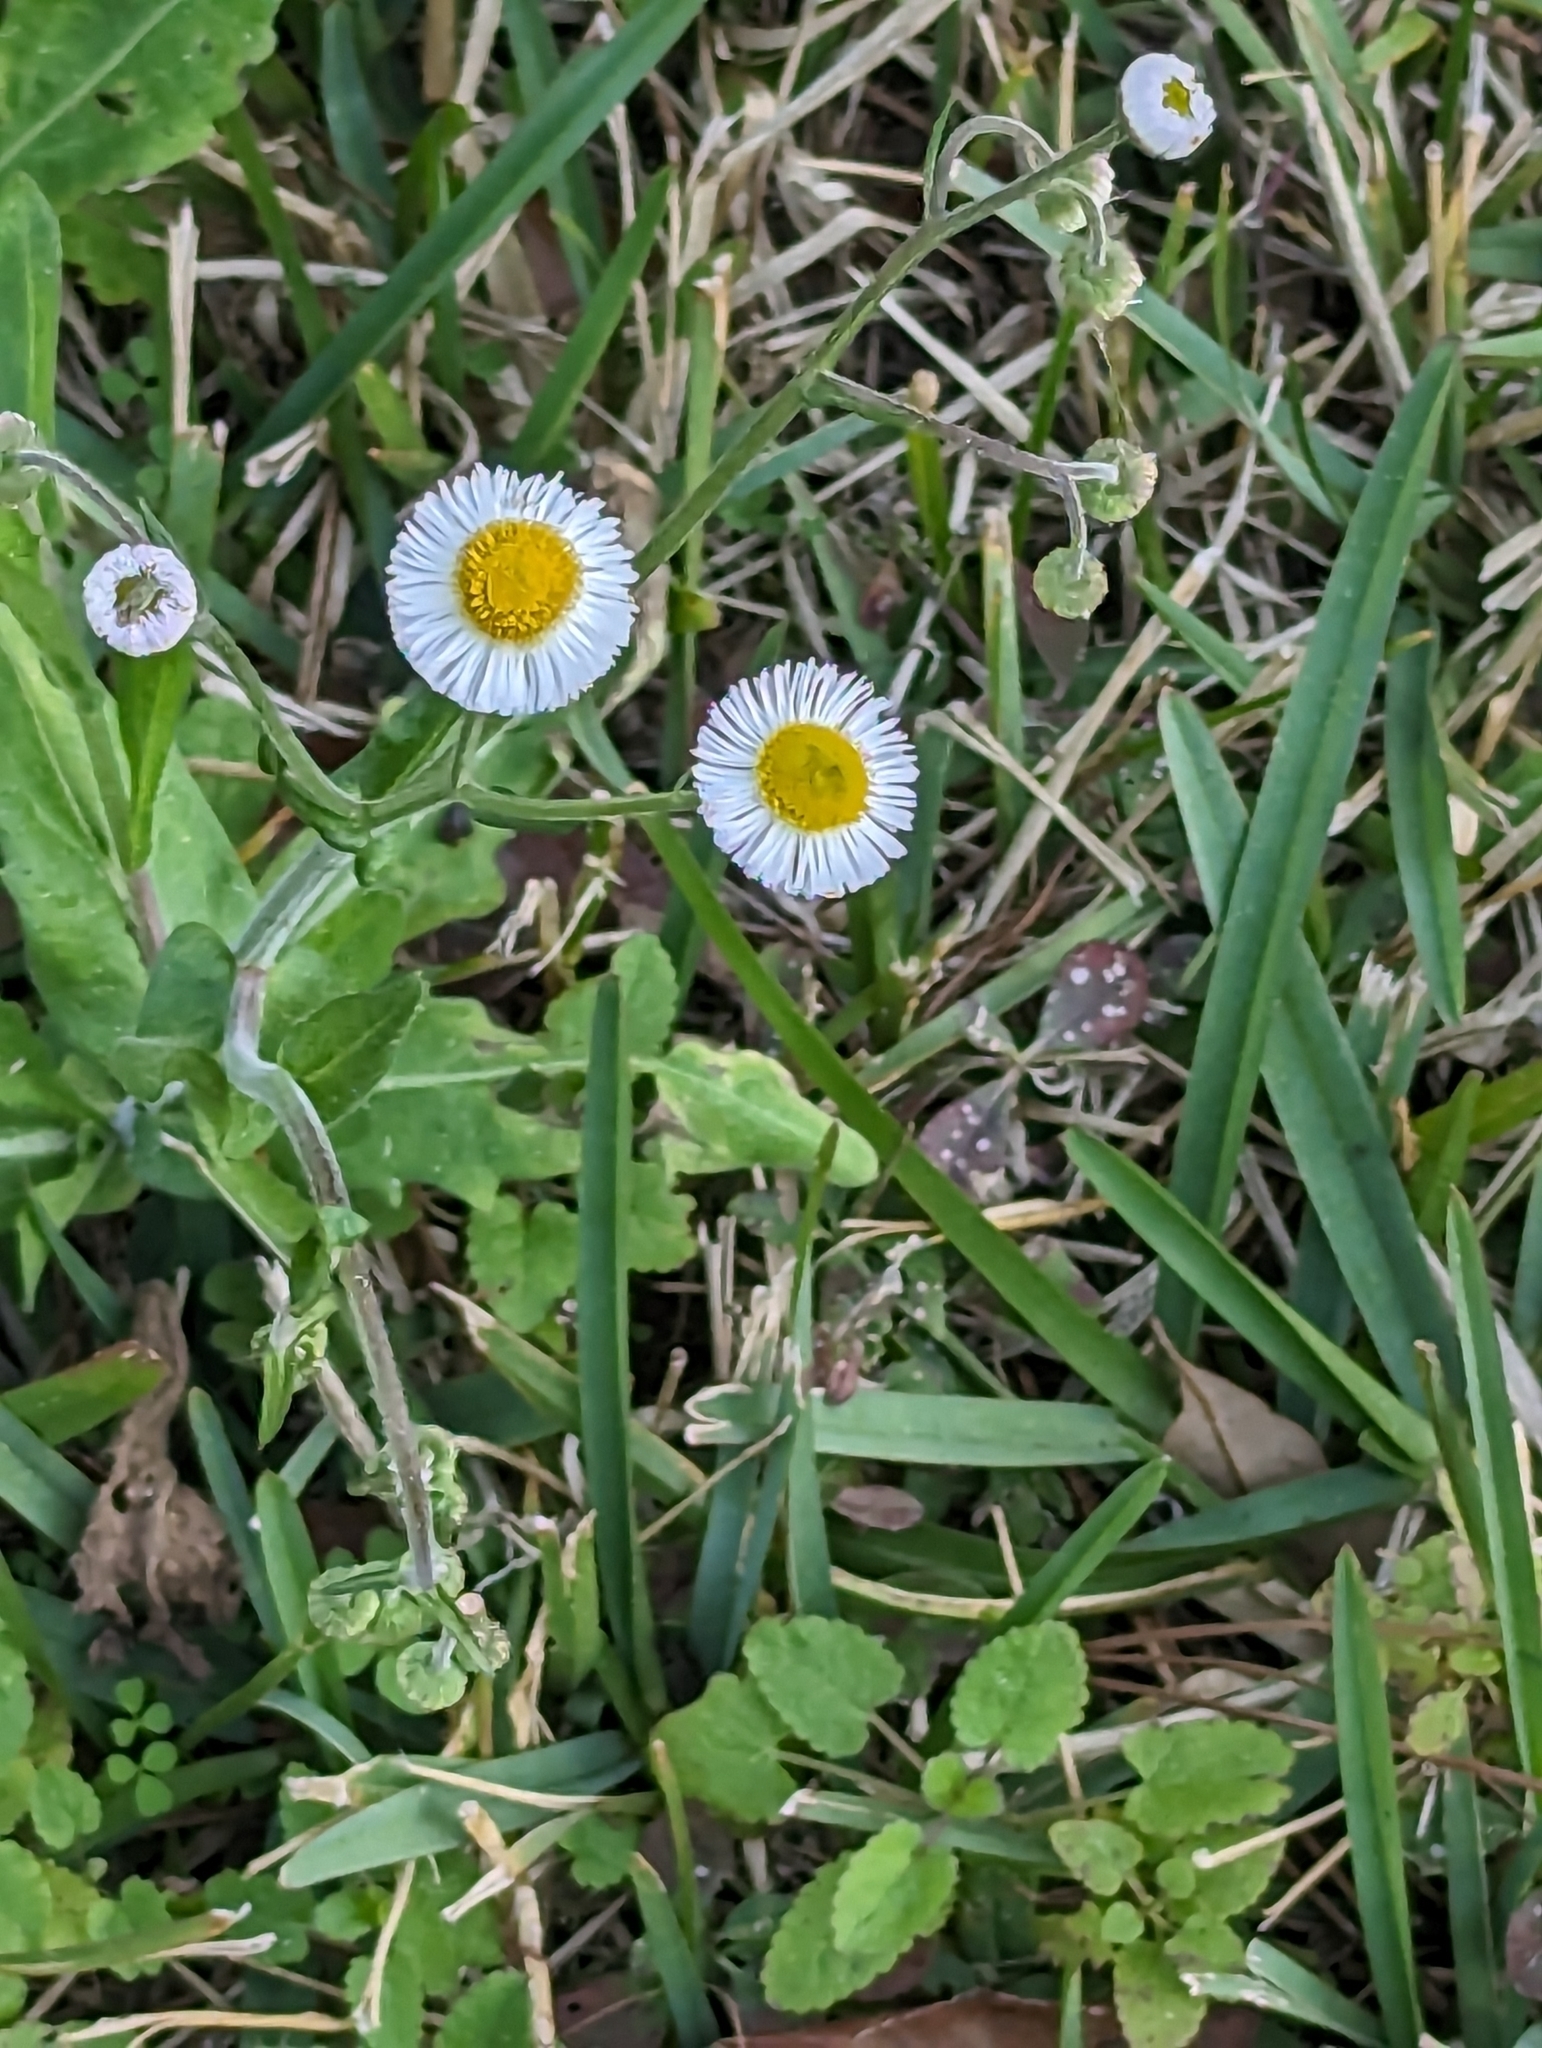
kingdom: Plantae
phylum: Tracheophyta
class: Magnoliopsida
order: Asterales
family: Asteraceae
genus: Erigeron
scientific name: Erigeron quercifolius
